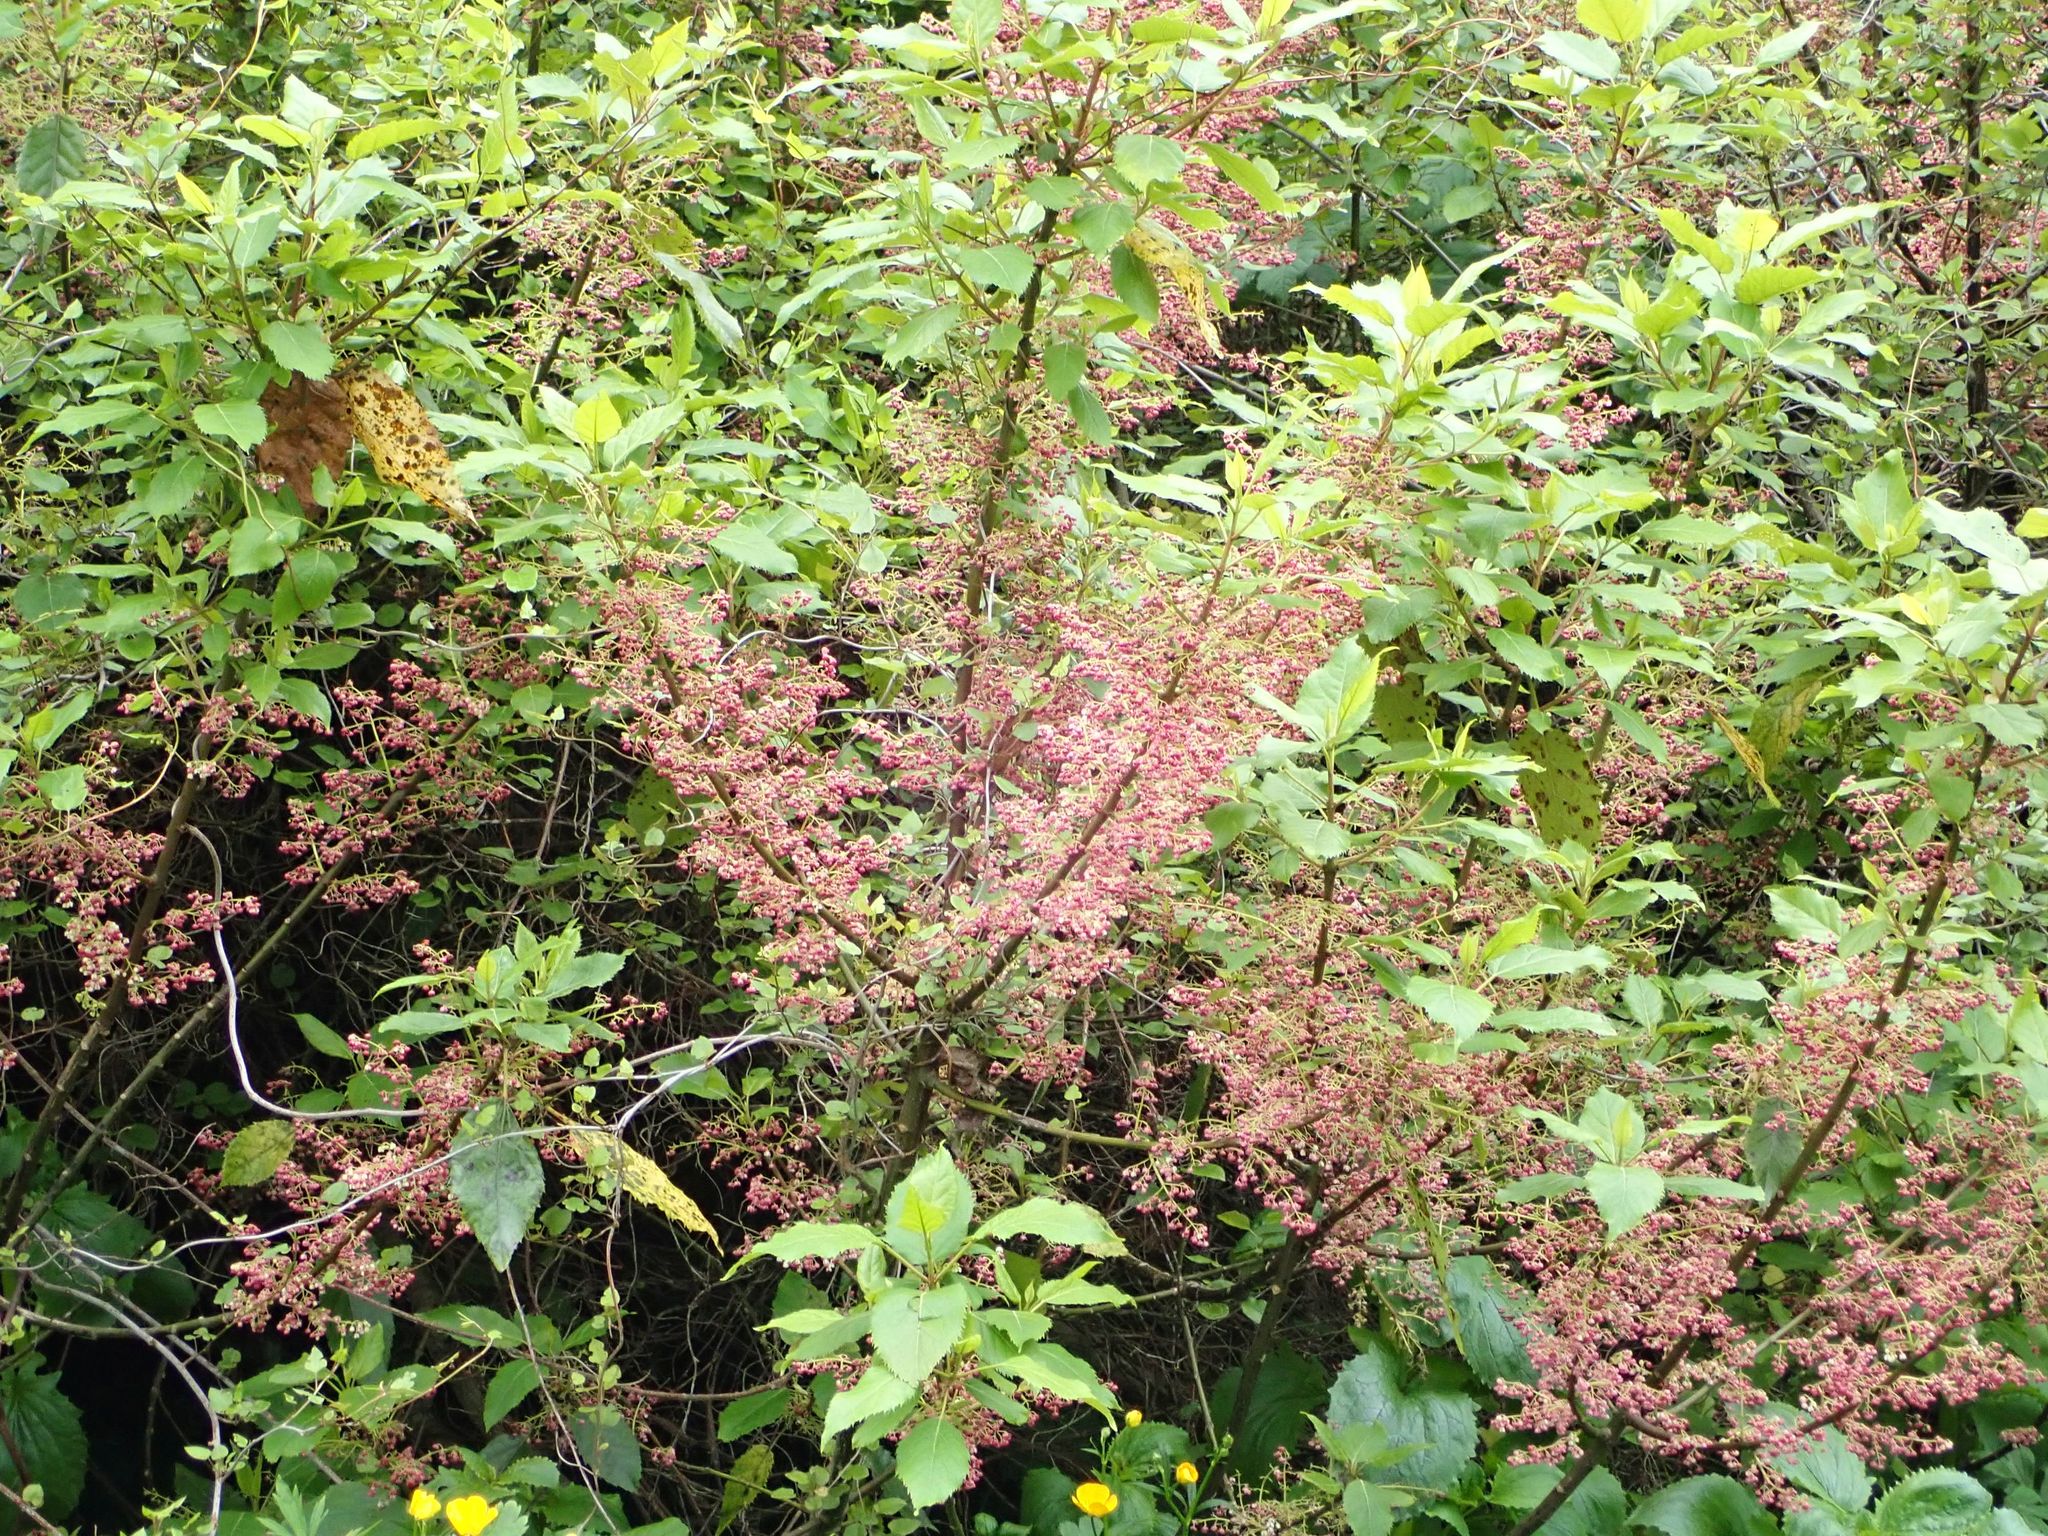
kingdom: Plantae
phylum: Tracheophyta
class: Magnoliopsida
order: Oxalidales
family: Elaeocarpaceae
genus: Aristotelia
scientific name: Aristotelia serrata
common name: New zealand wineberry
